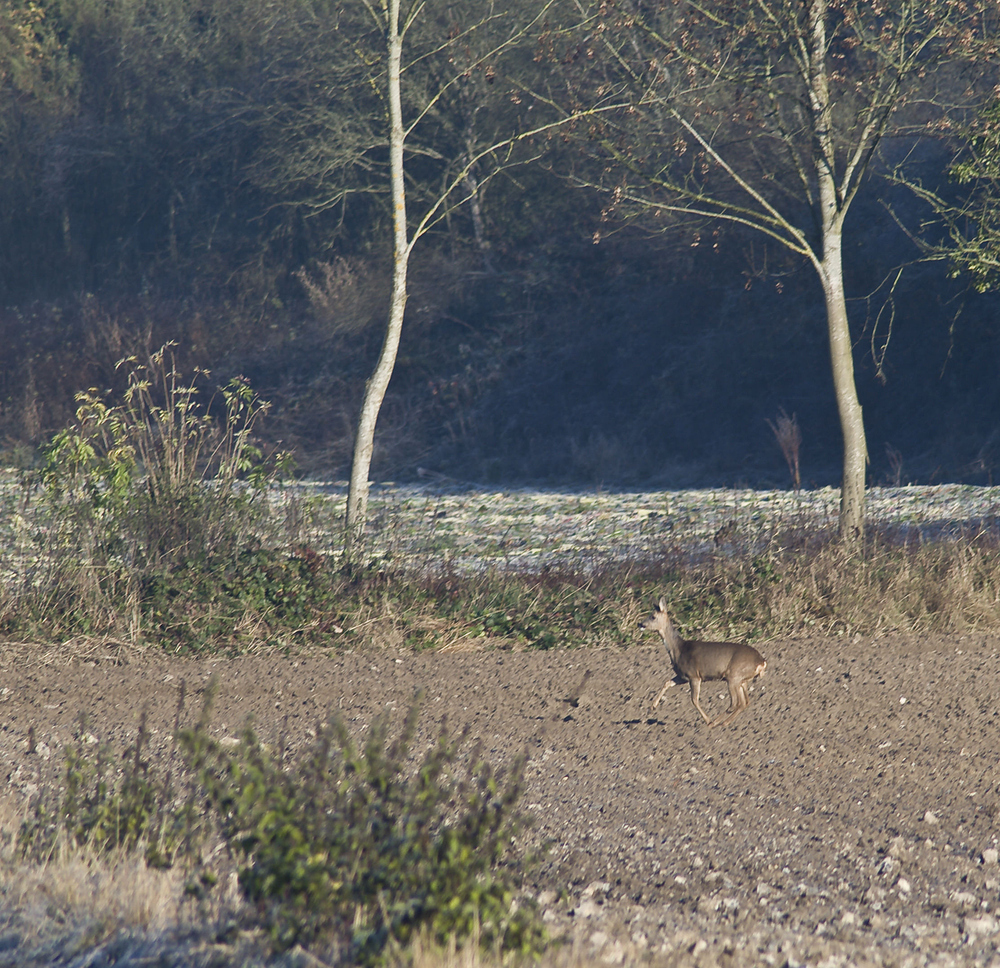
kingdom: Animalia
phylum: Chordata
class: Mammalia
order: Artiodactyla
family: Cervidae
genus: Capreolus
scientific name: Capreolus capreolus
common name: Western roe deer
